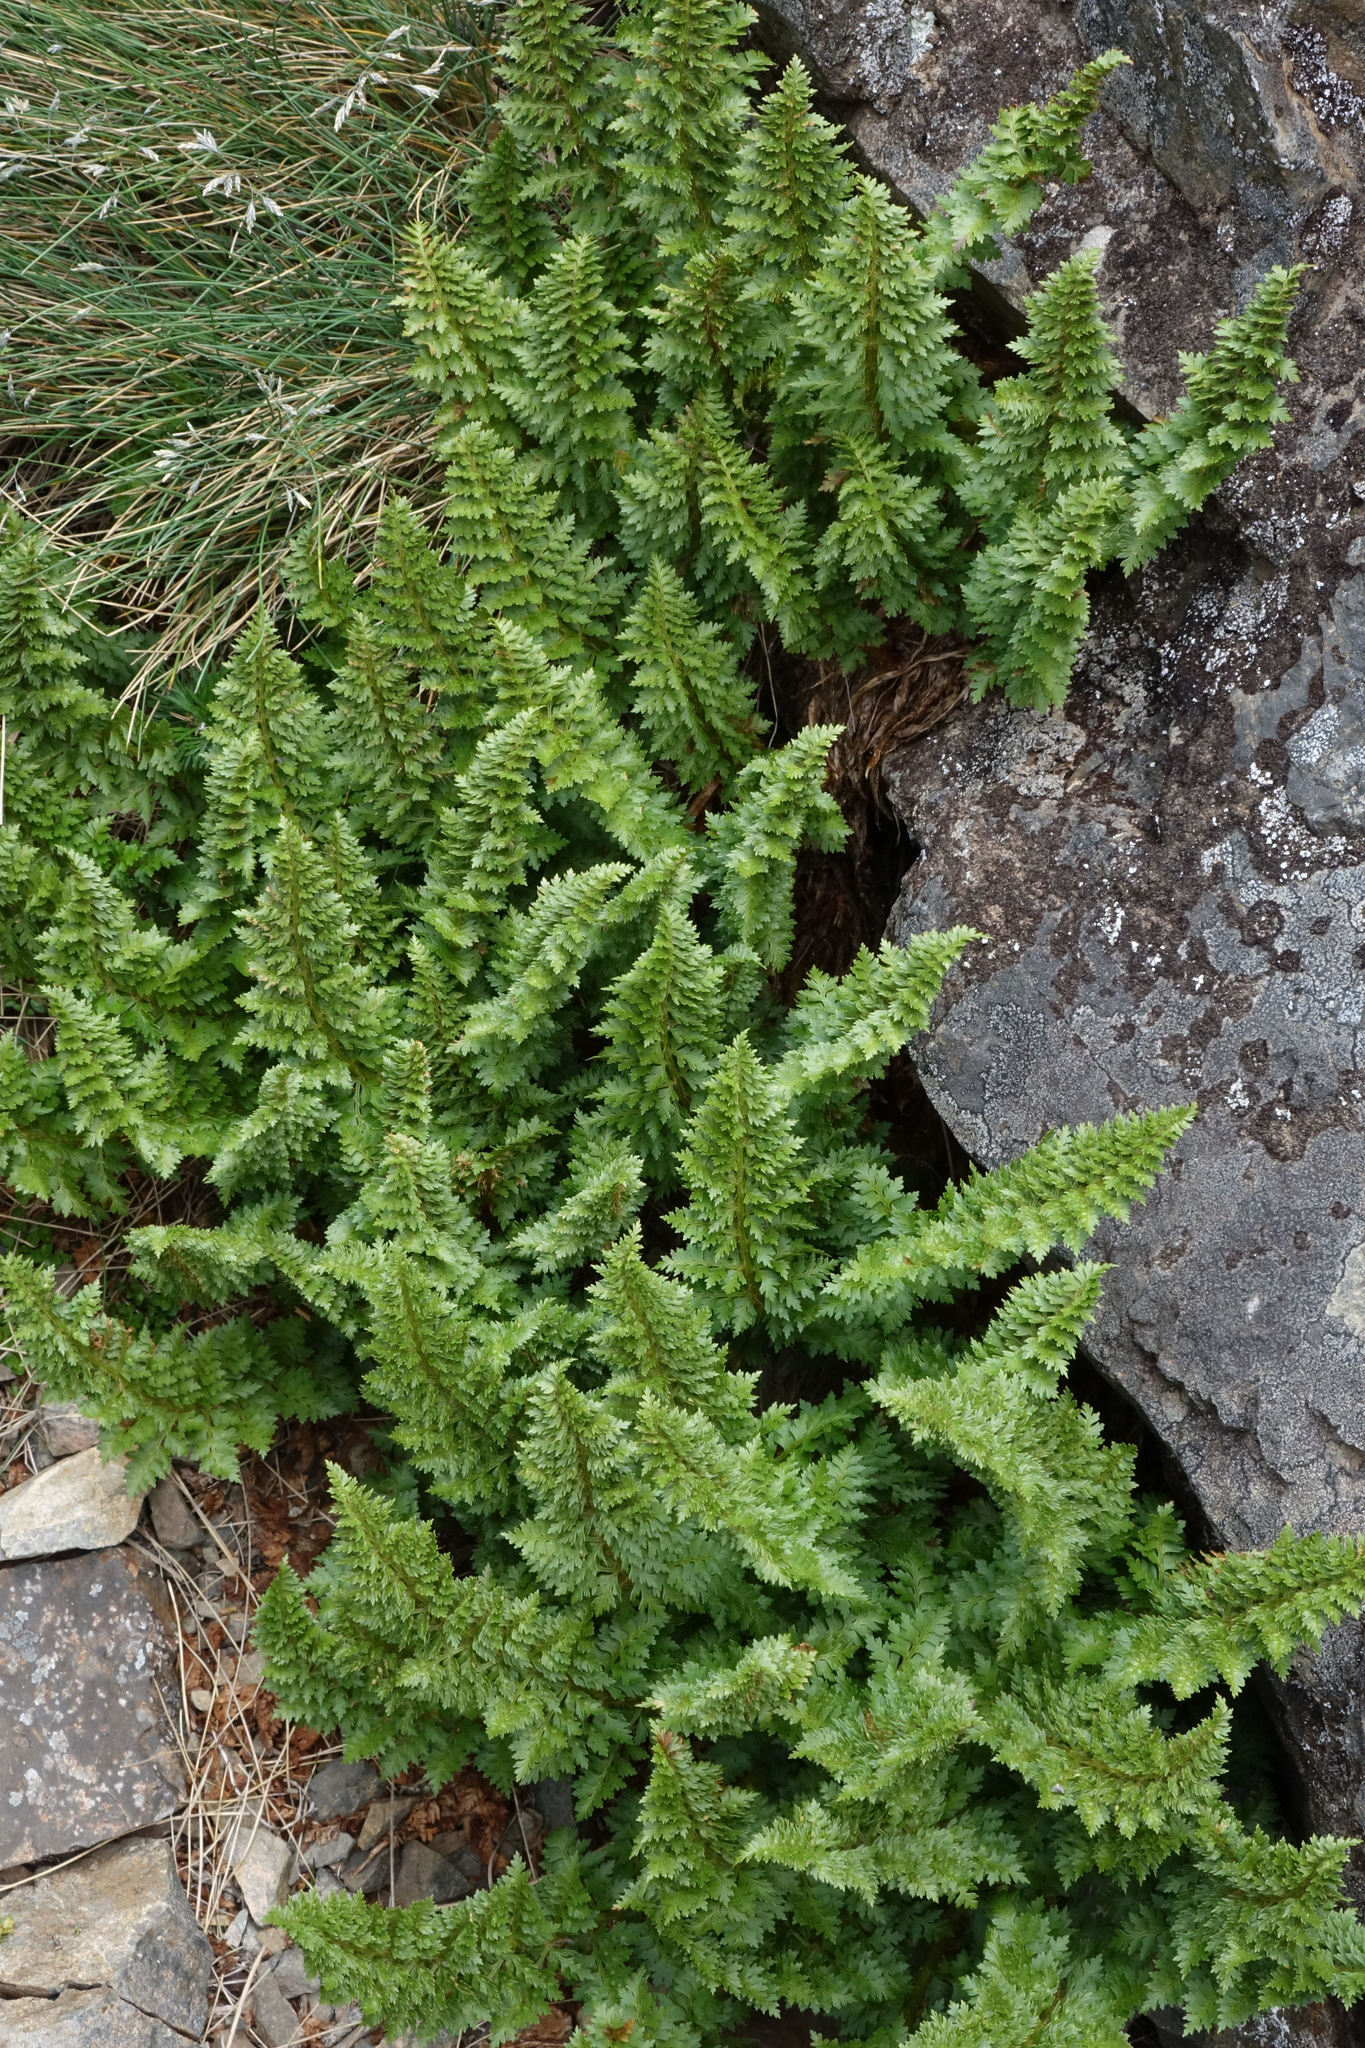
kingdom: Plantae
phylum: Tracheophyta
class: Polypodiopsida
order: Polypodiales
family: Dryopteridaceae
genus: Polystichum
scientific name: Polystichum cystostegia
